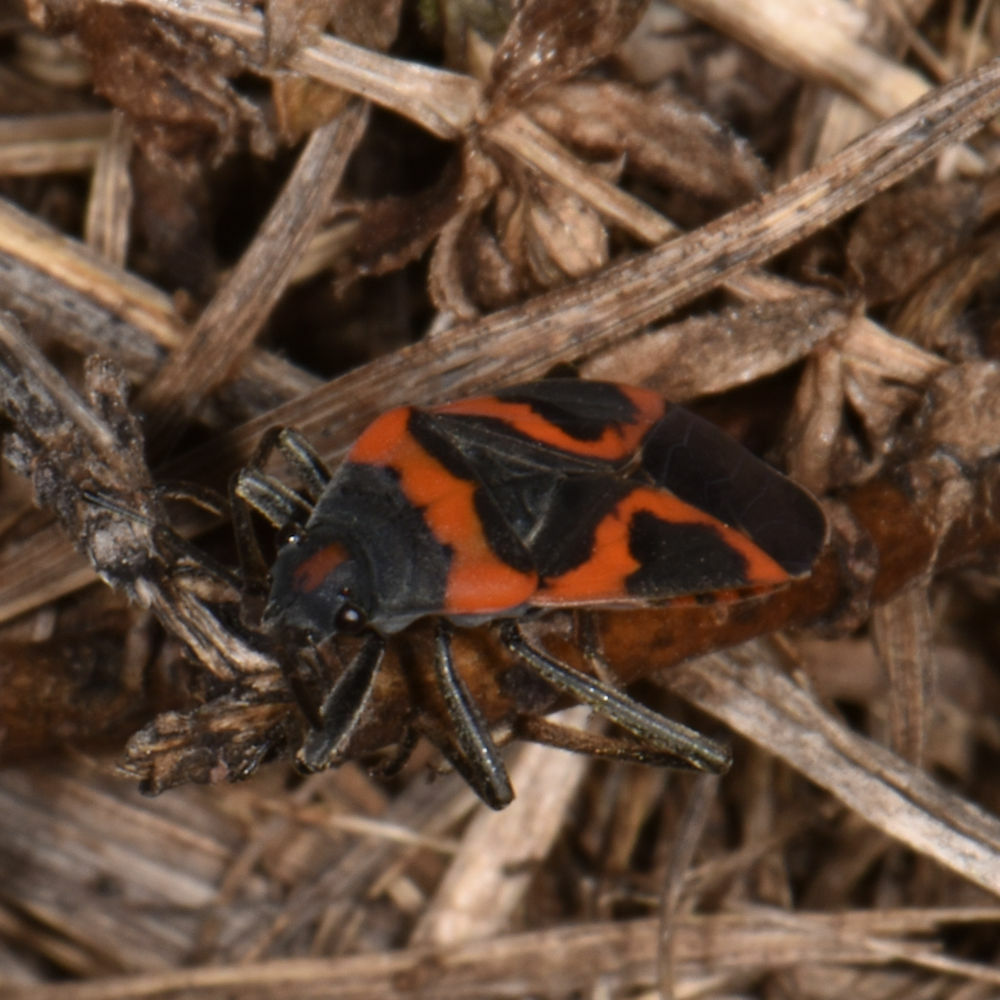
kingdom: Animalia
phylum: Arthropoda
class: Insecta
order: Hemiptera
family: Lygaeidae
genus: Lygaeus
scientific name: Lygaeus kalmii
